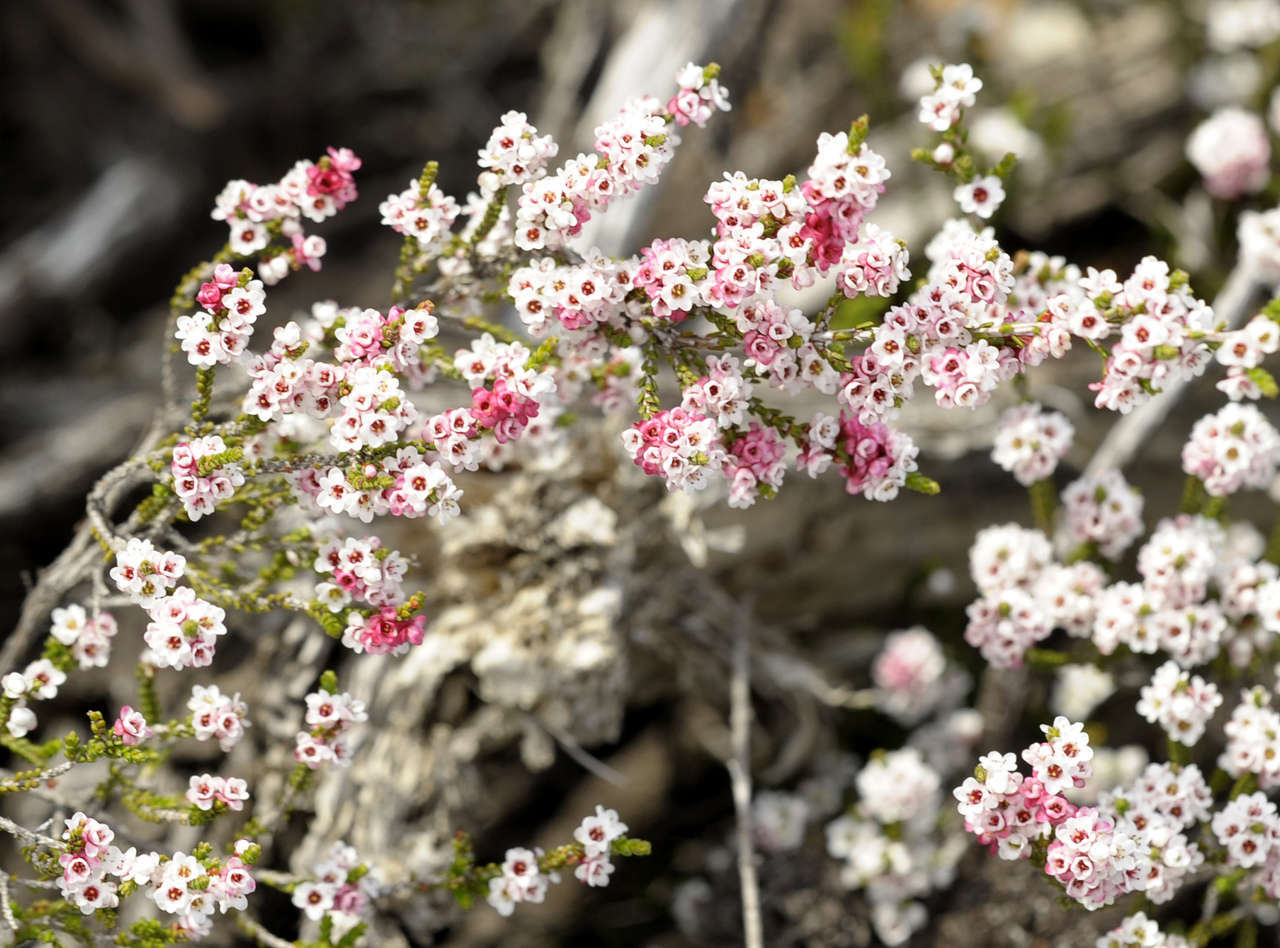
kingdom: Plantae
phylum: Tracheophyta
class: Magnoliopsida
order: Myrtales
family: Myrtaceae
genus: Micromyrtus
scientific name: Micromyrtus ciliata
